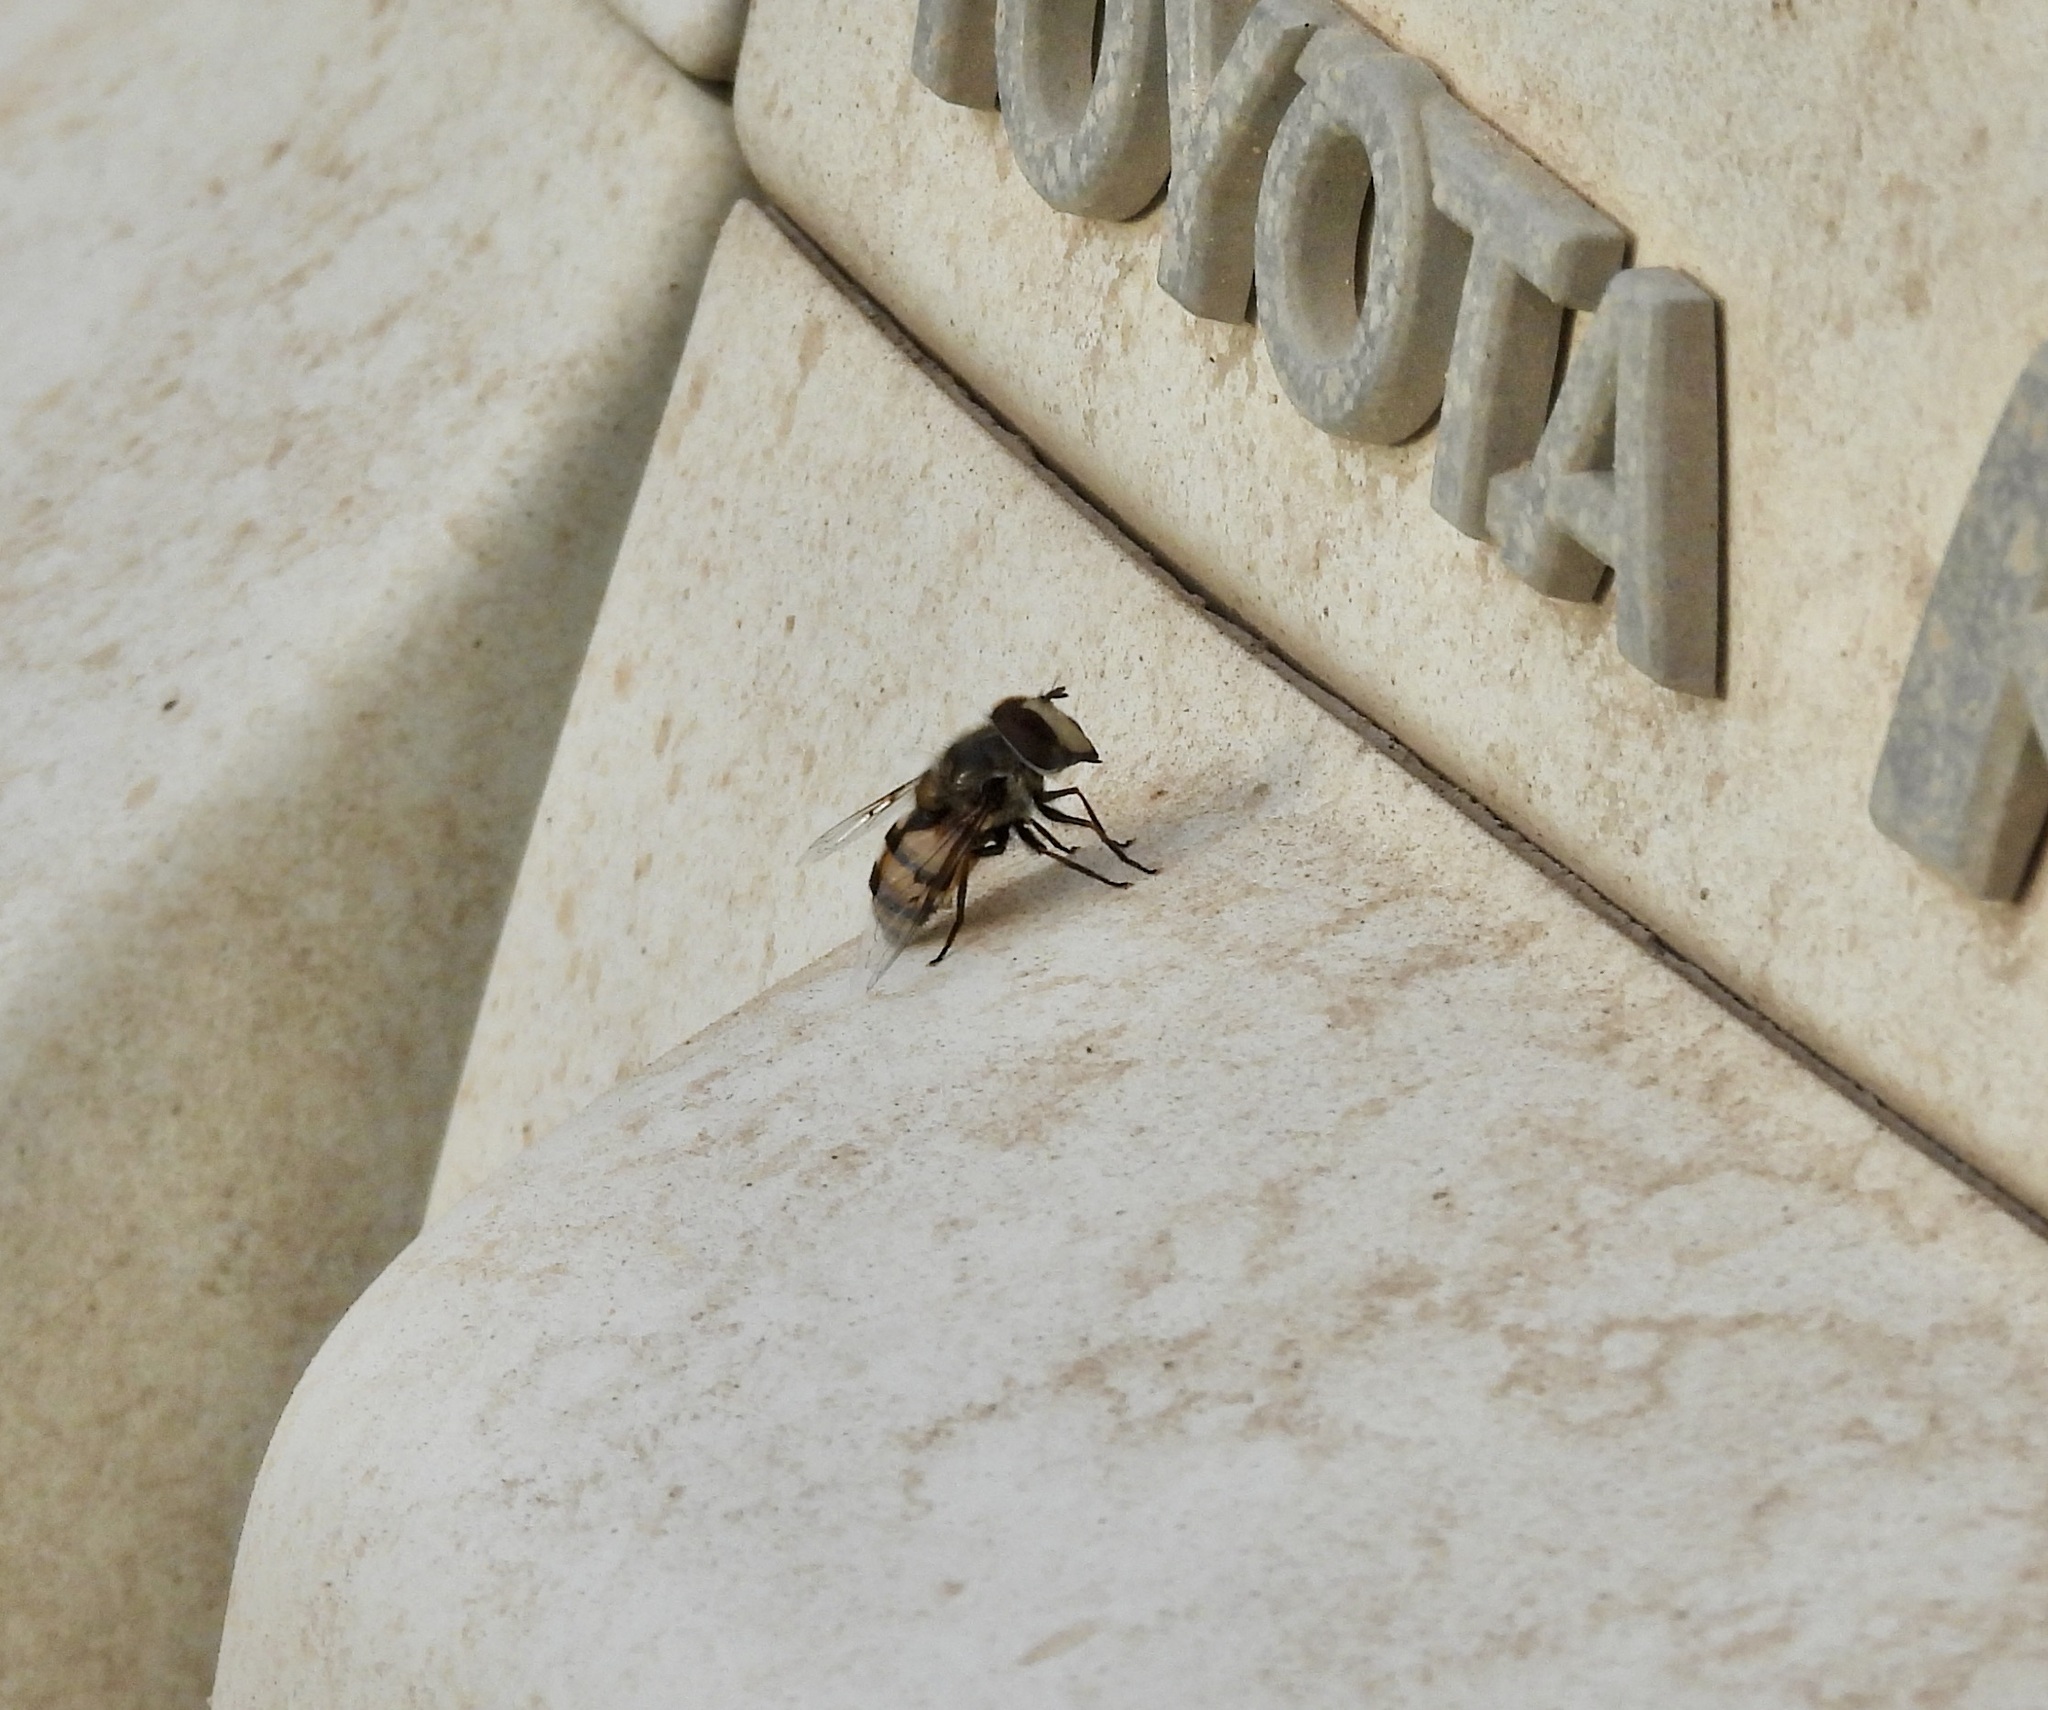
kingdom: Animalia
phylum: Arthropoda
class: Insecta
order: Diptera
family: Syrphidae
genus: Copestylum
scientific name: Copestylum avidum
